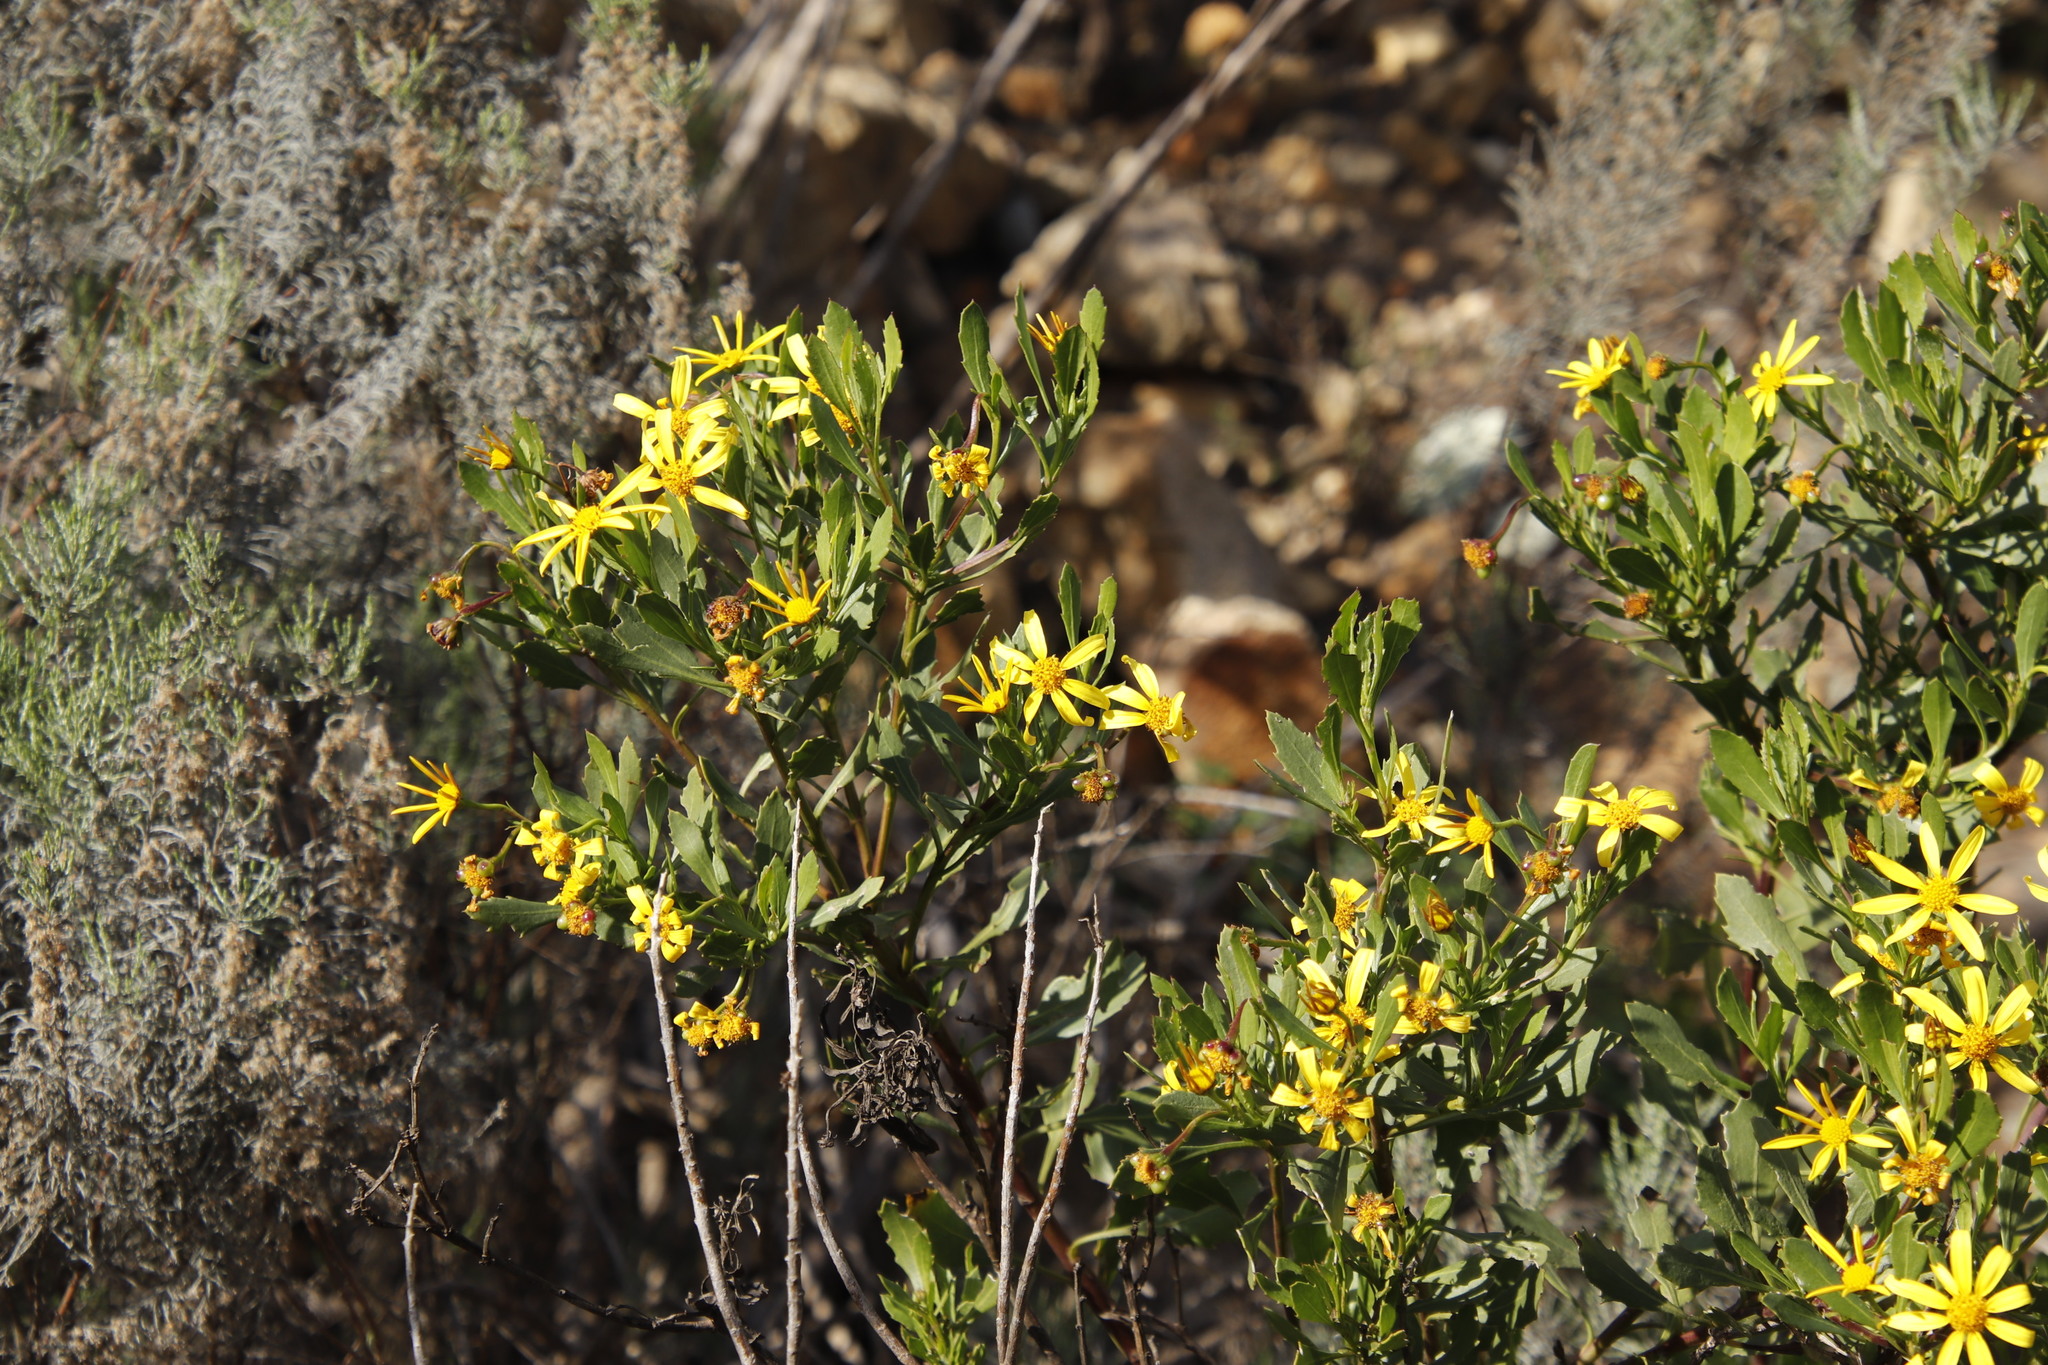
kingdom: Plantae
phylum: Tracheophyta
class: Magnoliopsida
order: Asterales
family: Asteraceae
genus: Osteospermum
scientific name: Osteospermum moniliferum
